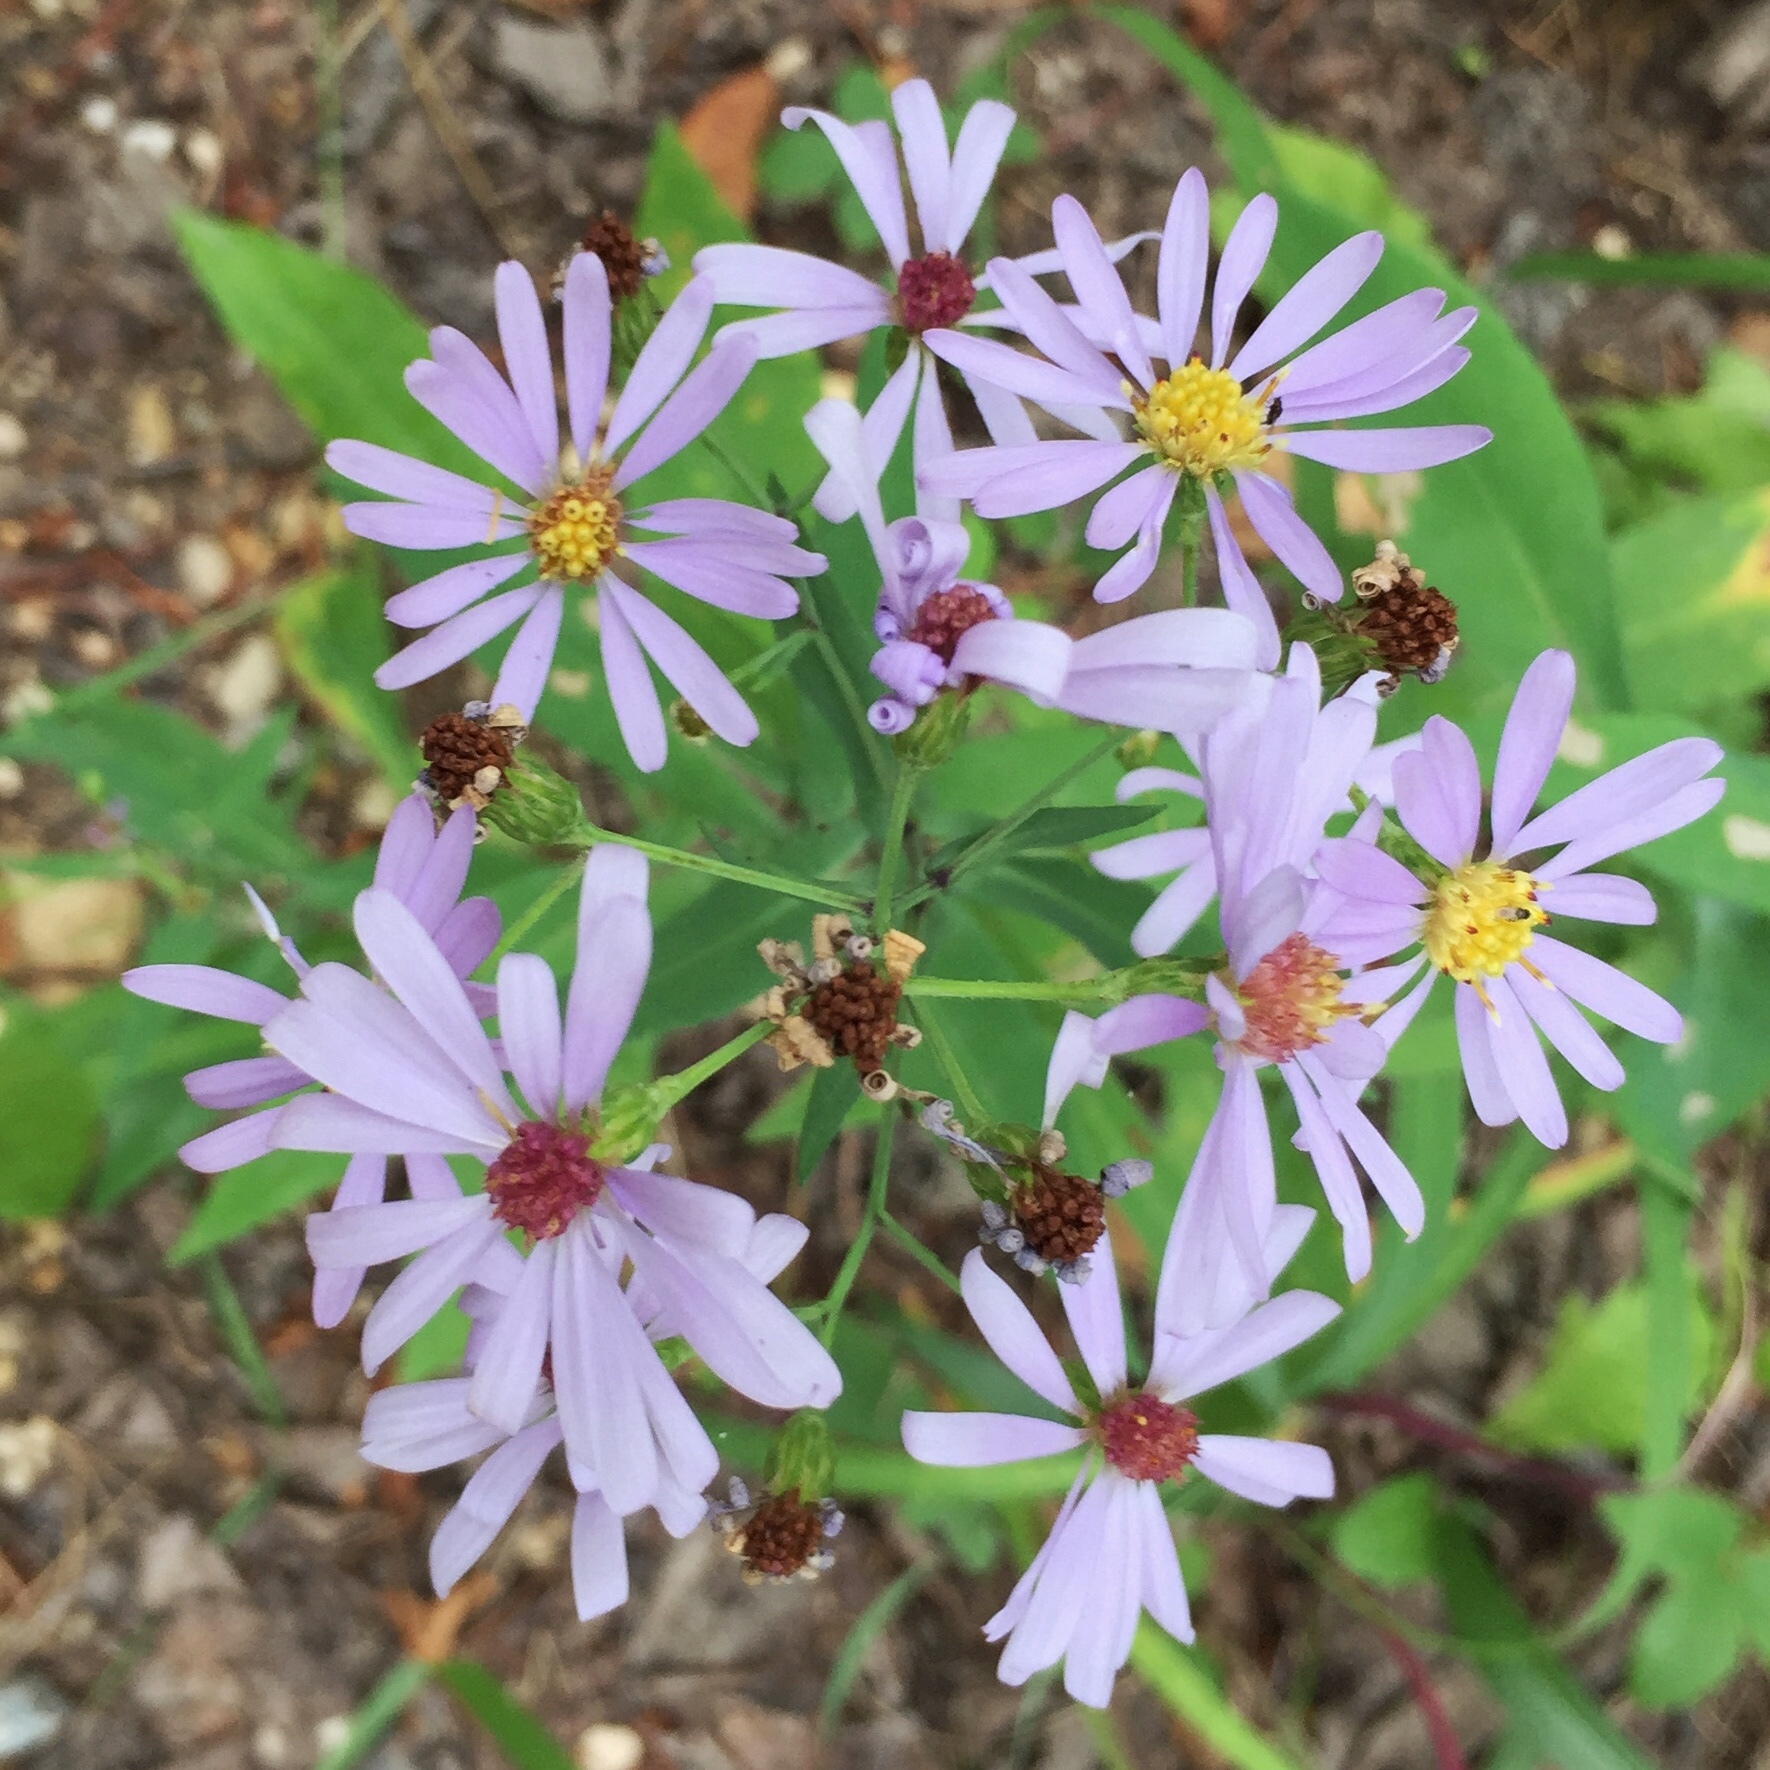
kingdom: Plantae
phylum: Tracheophyta
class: Magnoliopsida
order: Asterales
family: Asteraceae
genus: Symphyotrichum
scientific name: Symphyotrichum laeve
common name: Glaucous aster
